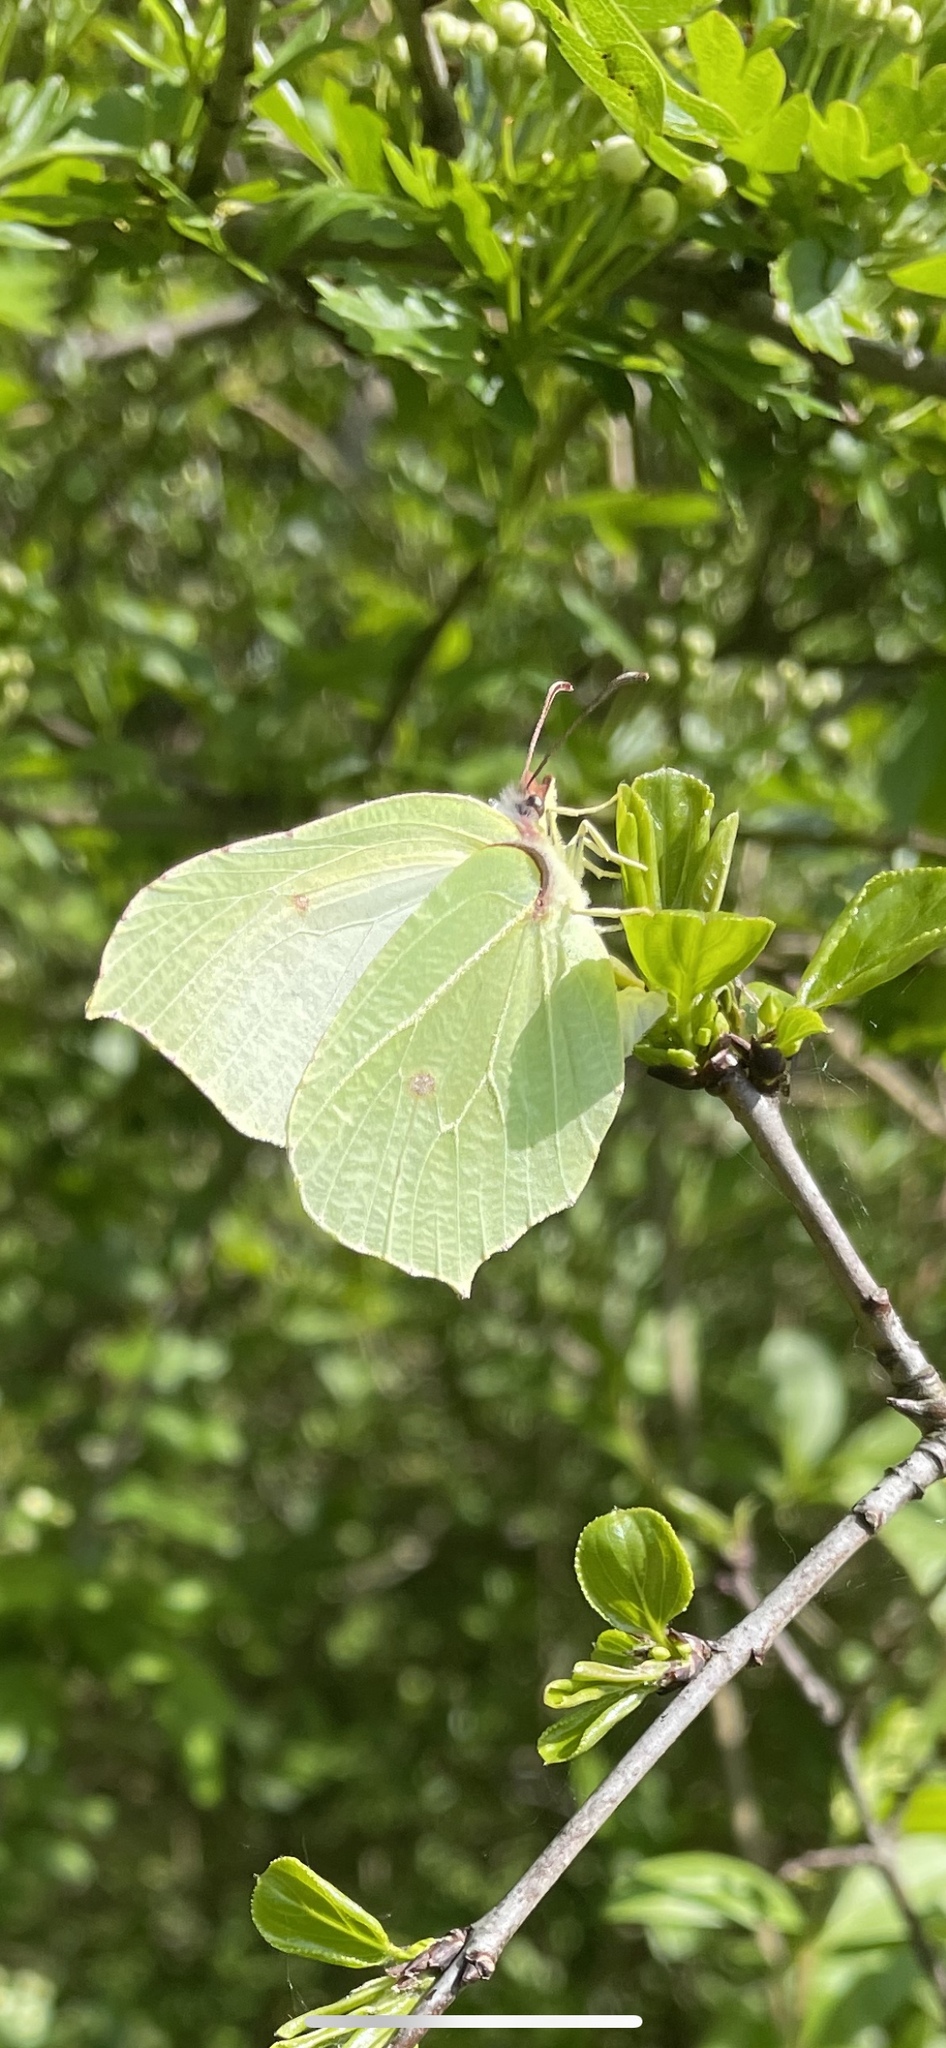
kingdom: Animalia
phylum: Arthropoda
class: Insecta
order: Lepidoptera
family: Pieridae
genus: Gonepteryx
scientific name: Gonepteryx rhamni
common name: Brimstone
